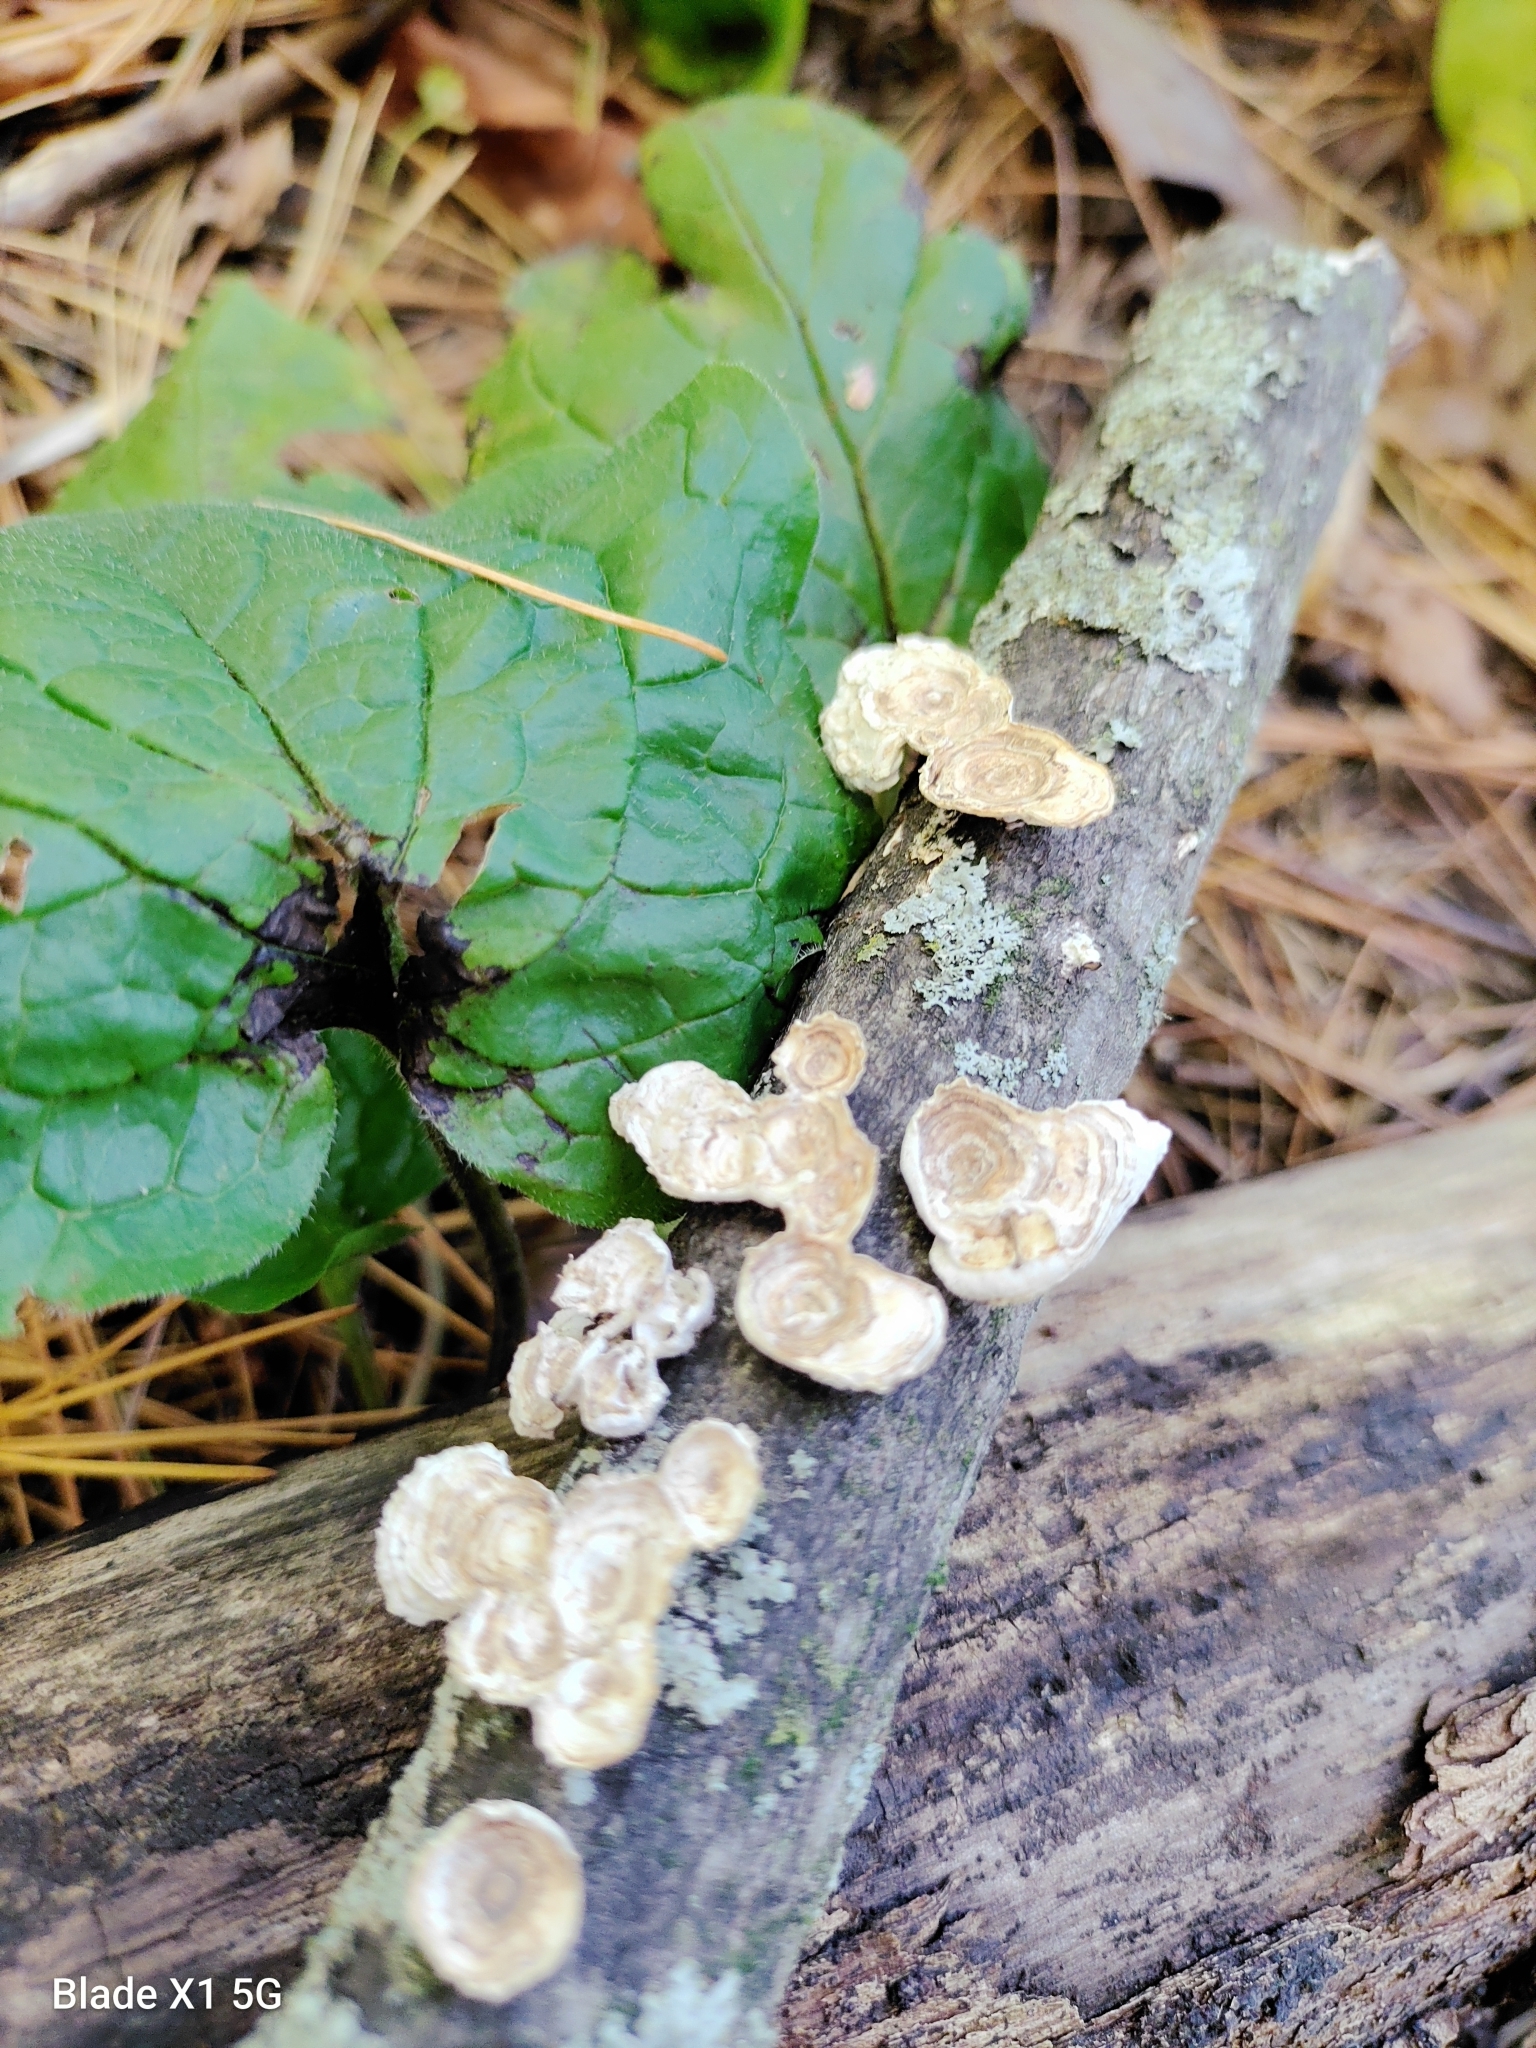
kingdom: Fungi
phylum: Basidiomycota
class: Agaricomycetes
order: Polyporales
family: Polyporaceae
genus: Poronidulus
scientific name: Poronidulus conchifer
